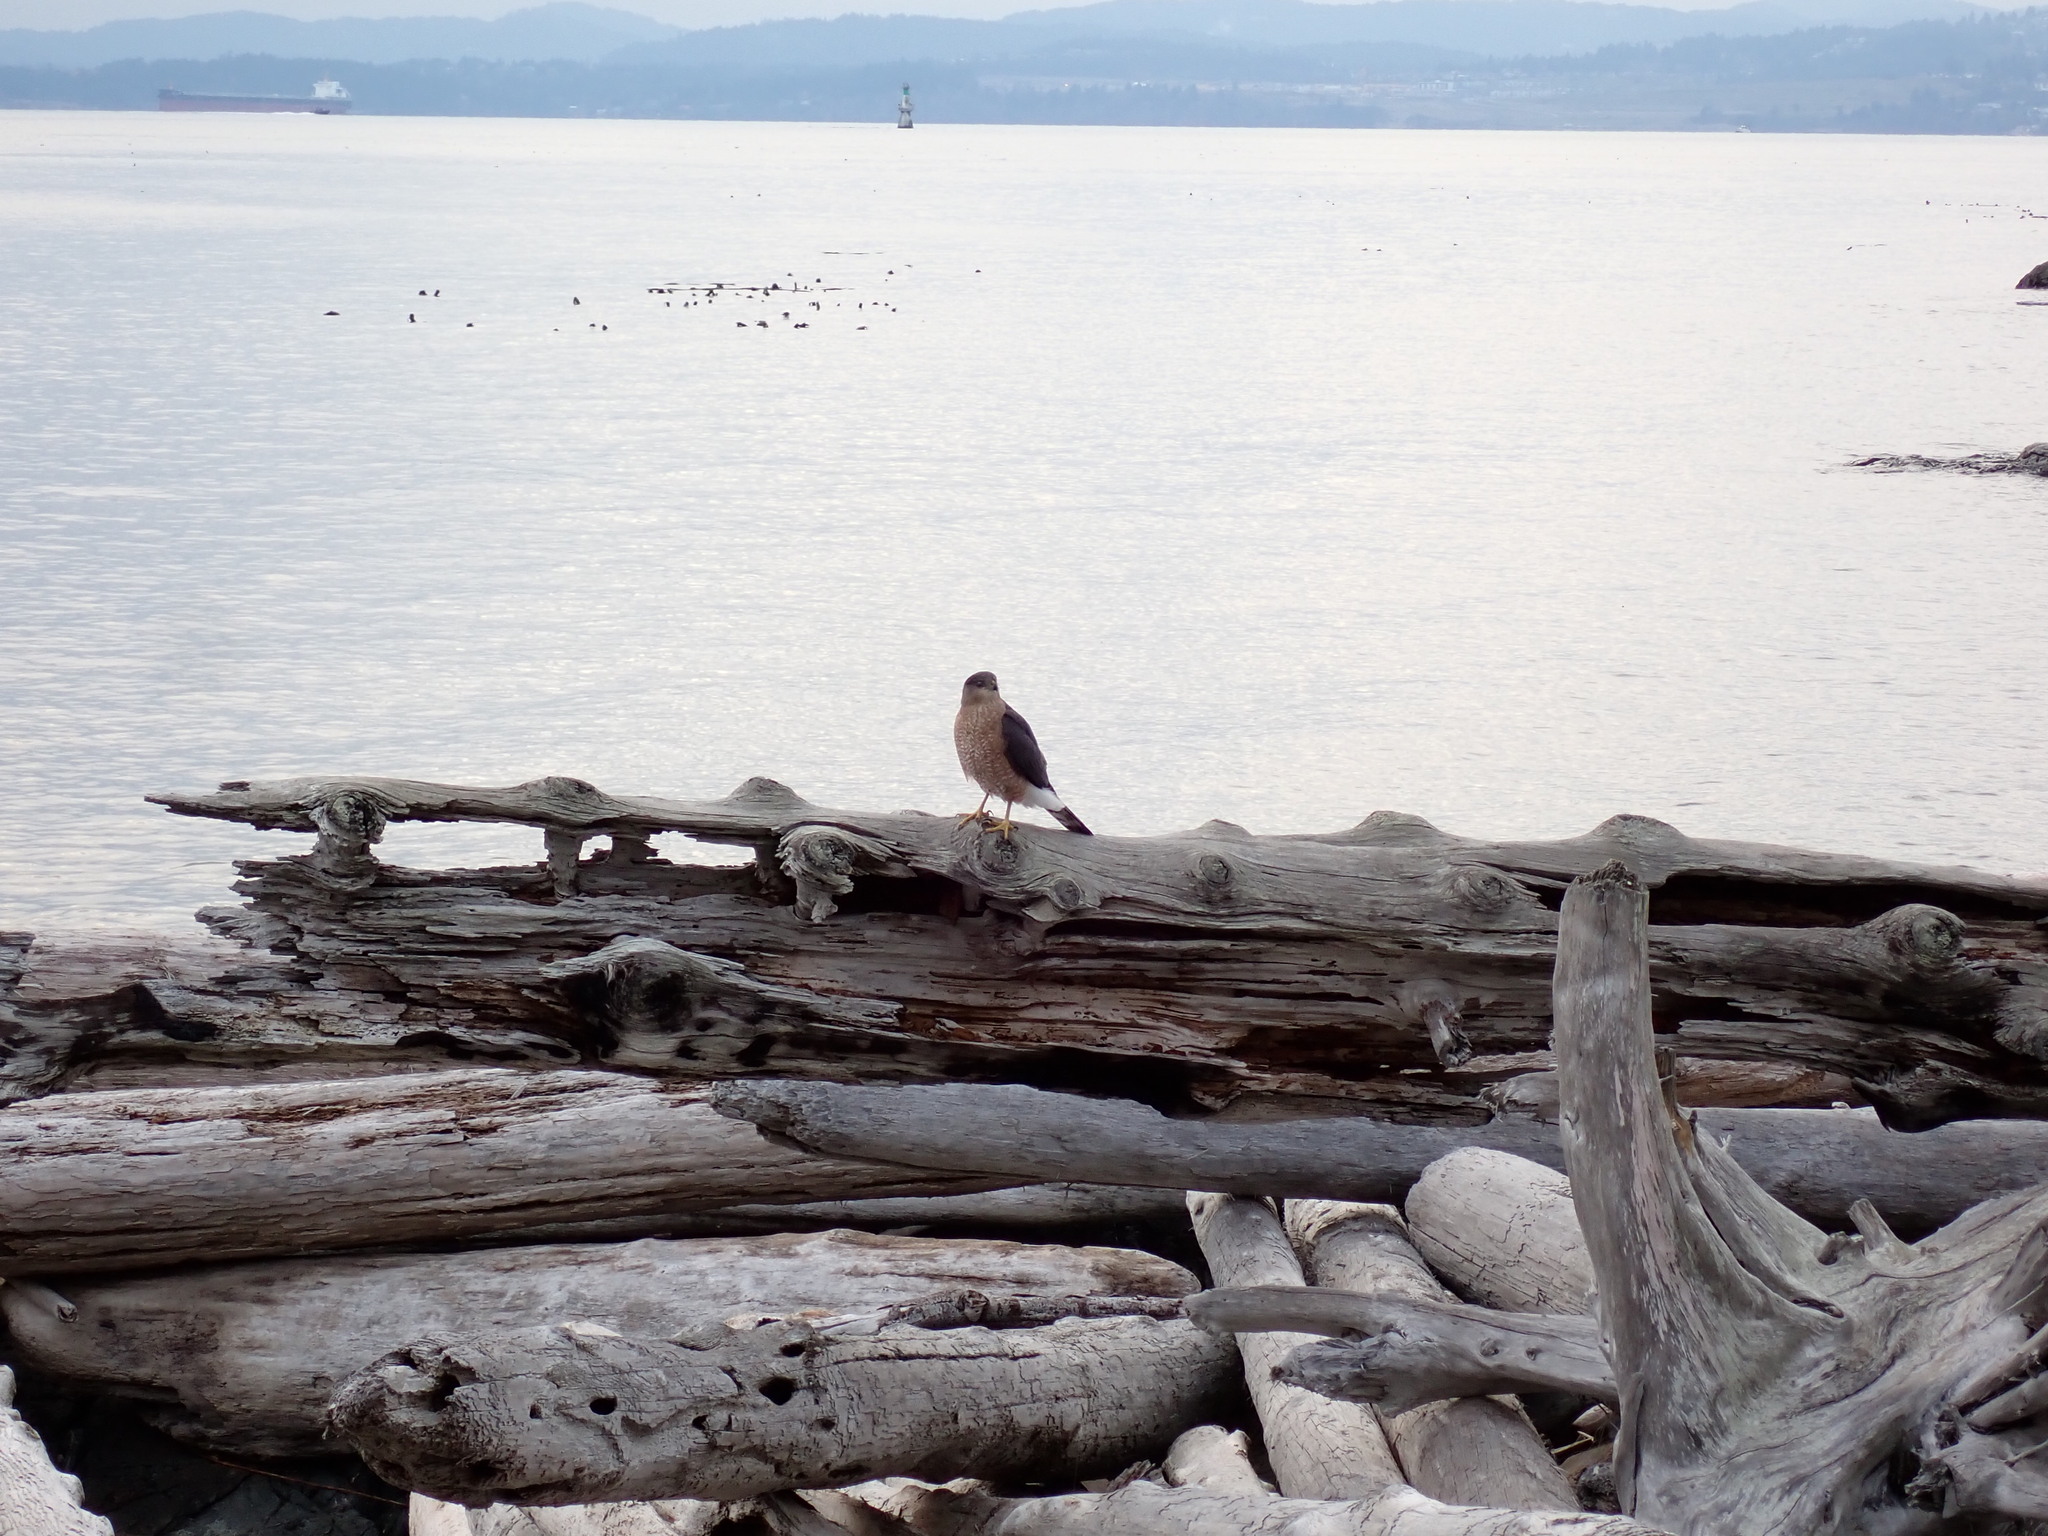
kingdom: Animalia
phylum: Chordata
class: Aves
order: Accipitriformes
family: Accipitridae
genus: Accipiter
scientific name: Accipiter cooperii
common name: Cooper's hawk
